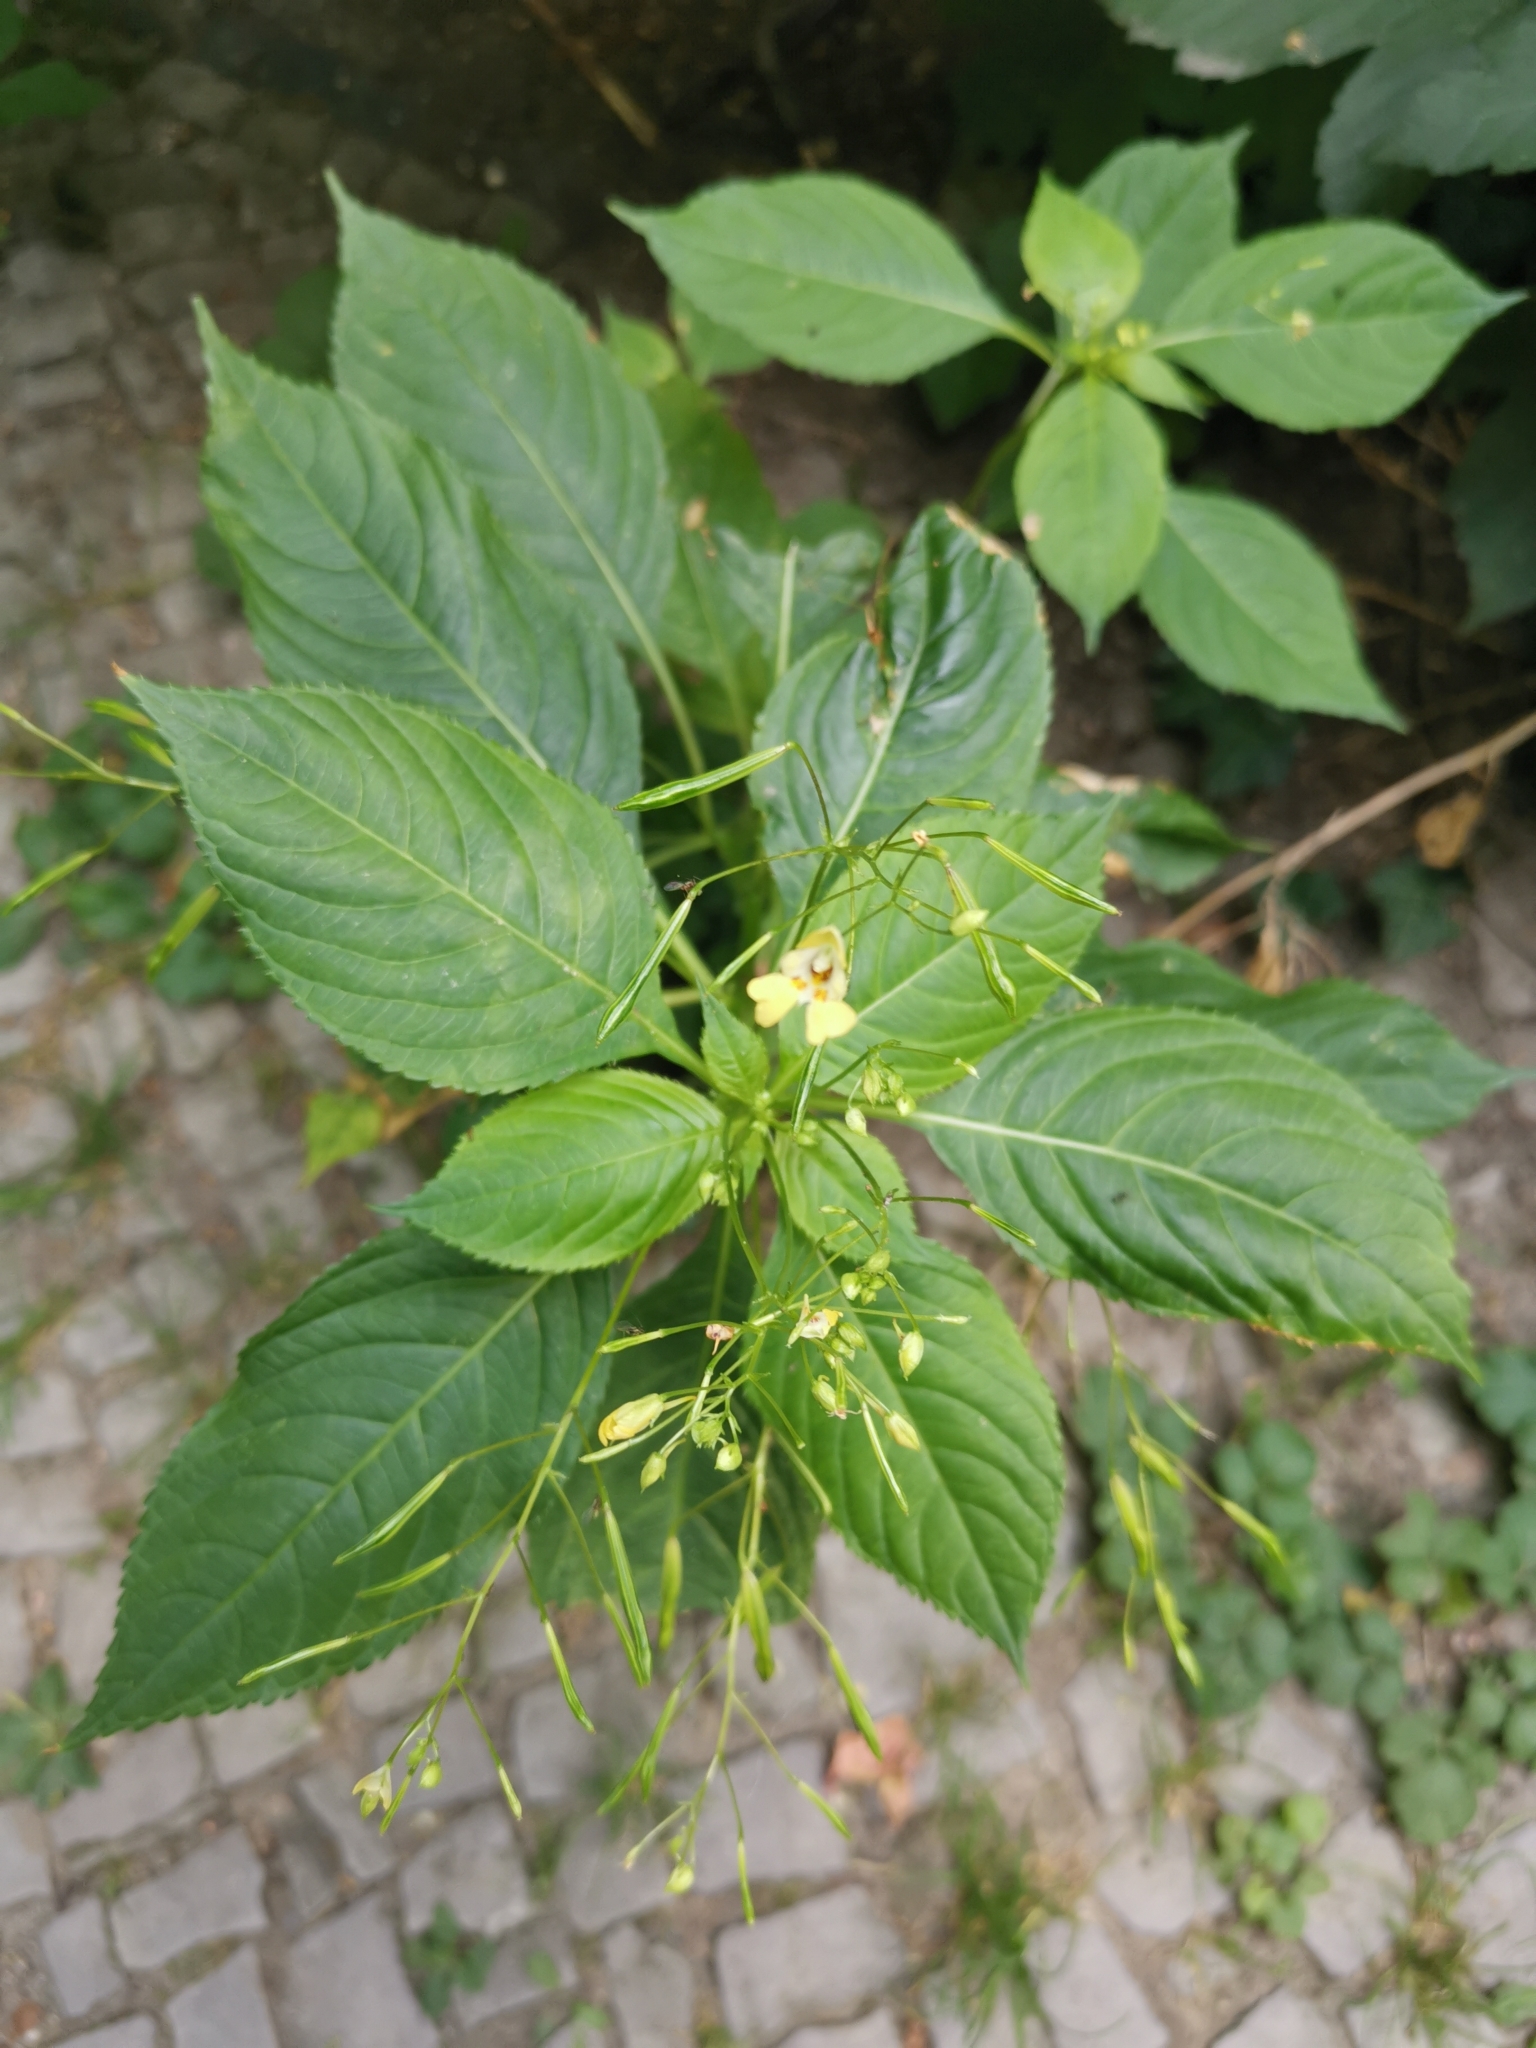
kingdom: Plantae
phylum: Tracheophyta
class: Magnoliopsida
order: Ericales
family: Balsaminaceae
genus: Impatiens
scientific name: Impatiens parviflora
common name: Small balsam
